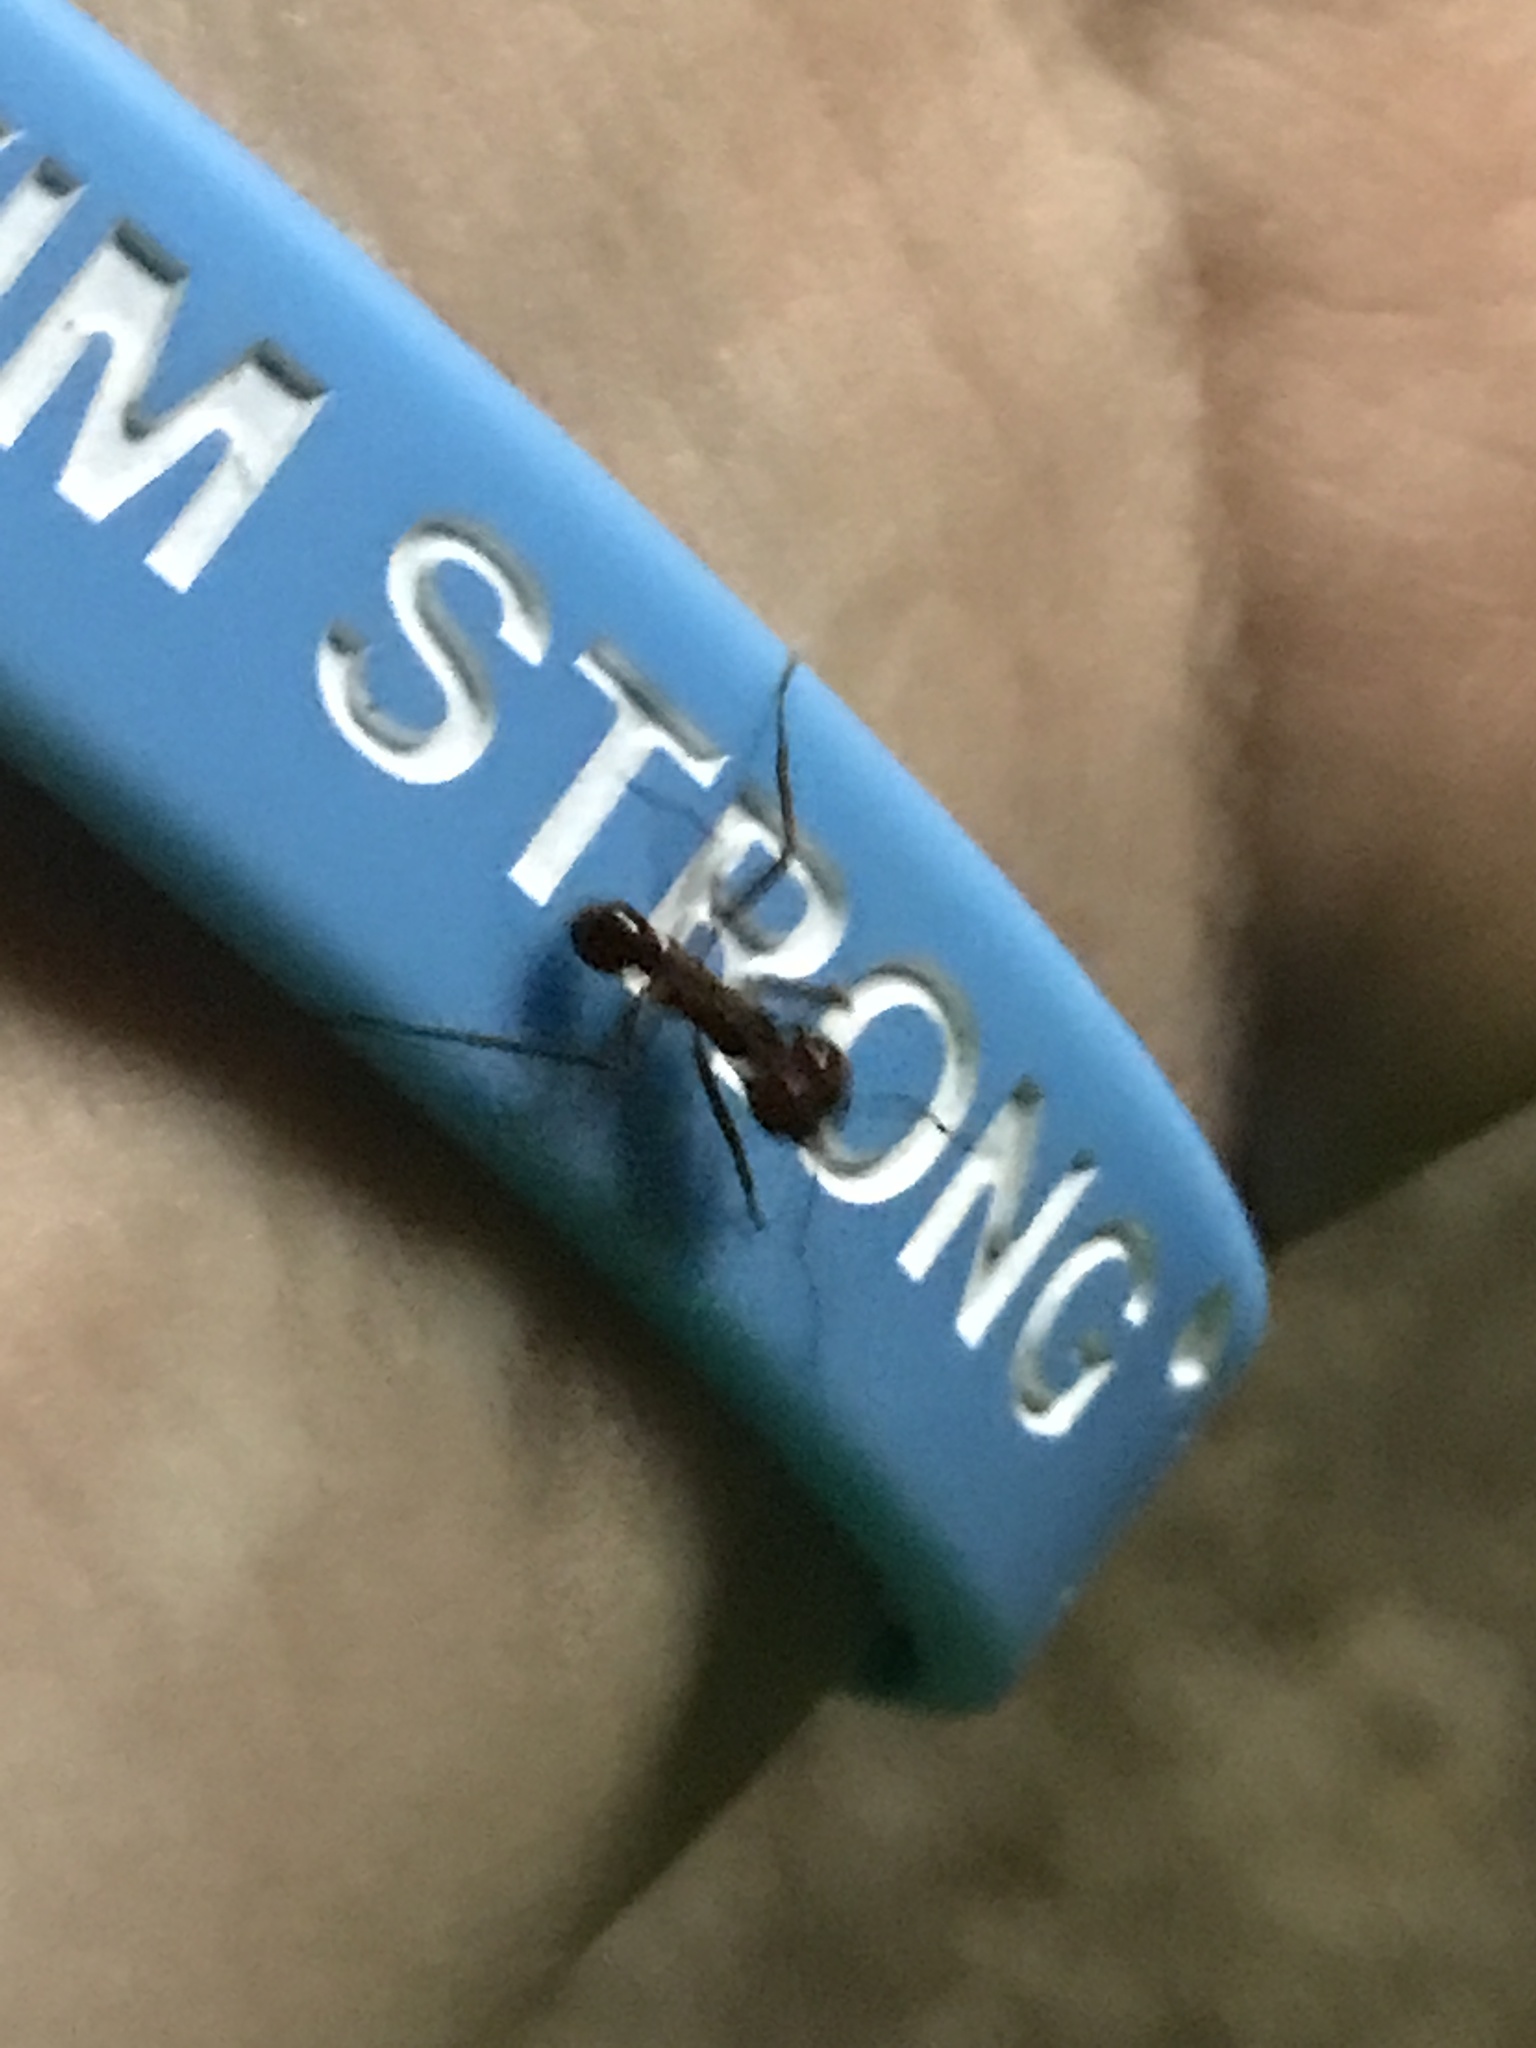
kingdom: Animalia
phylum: Arthropoda
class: Insecta
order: Hymenoptera
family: Formicidae
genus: Atta
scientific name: Atta mexicana
